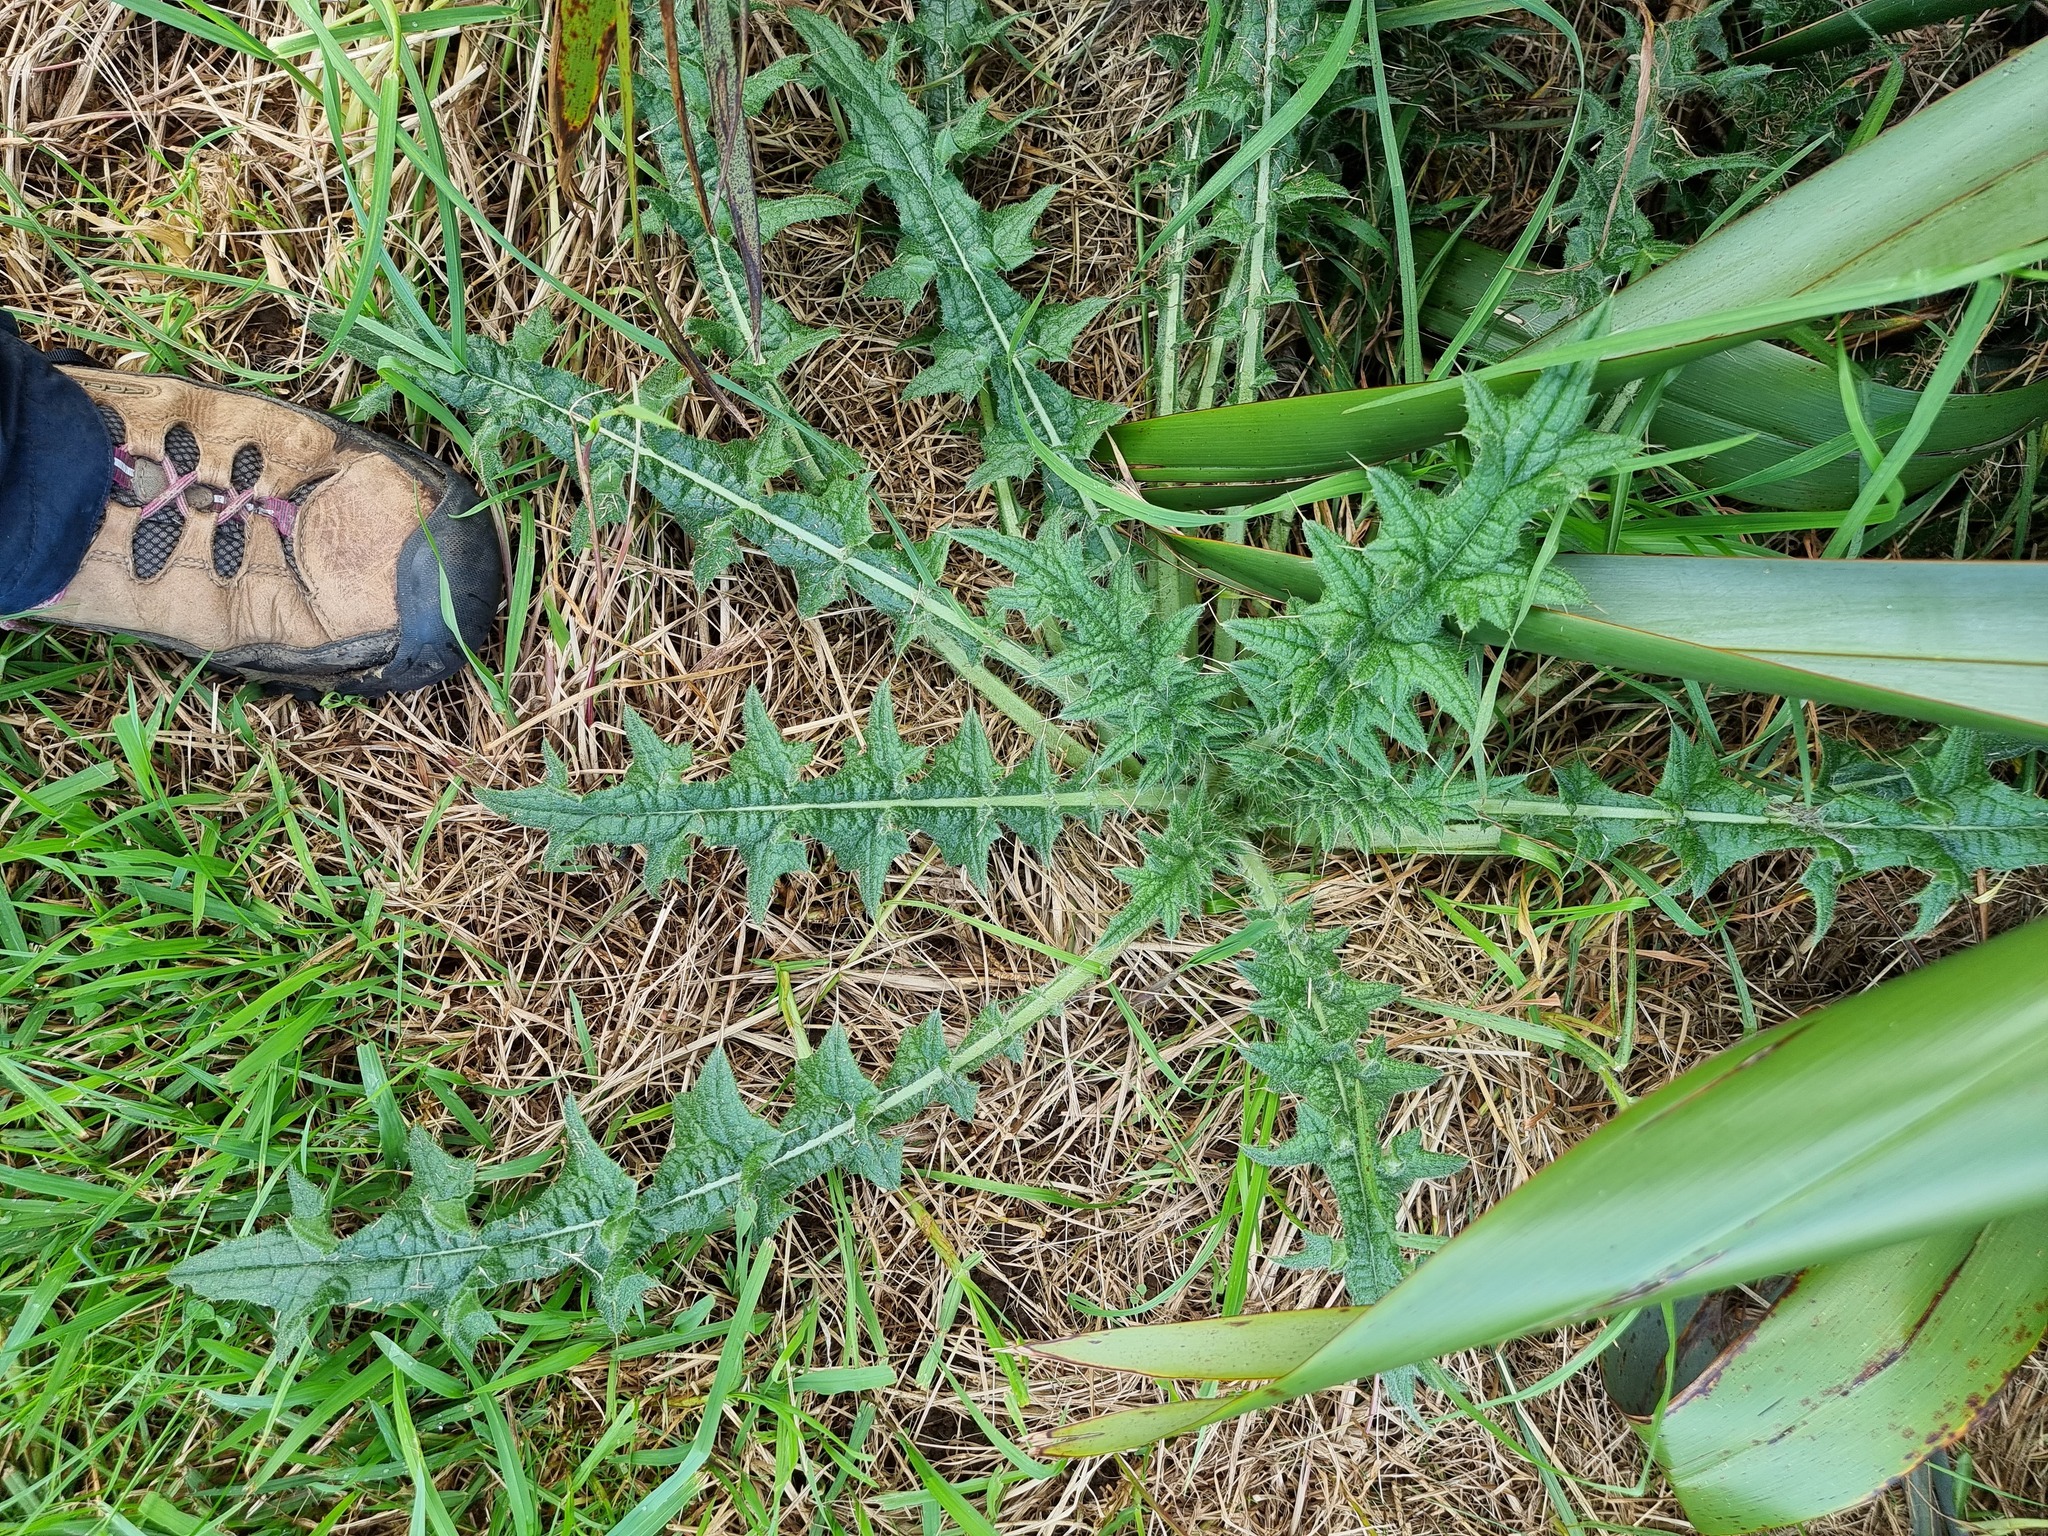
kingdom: Plantae
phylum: Tracheophyta
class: Magnoliopsida
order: Asterales
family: Asteraceae
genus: Cirsium
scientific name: Cirsium vulgare
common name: Bull thistle
